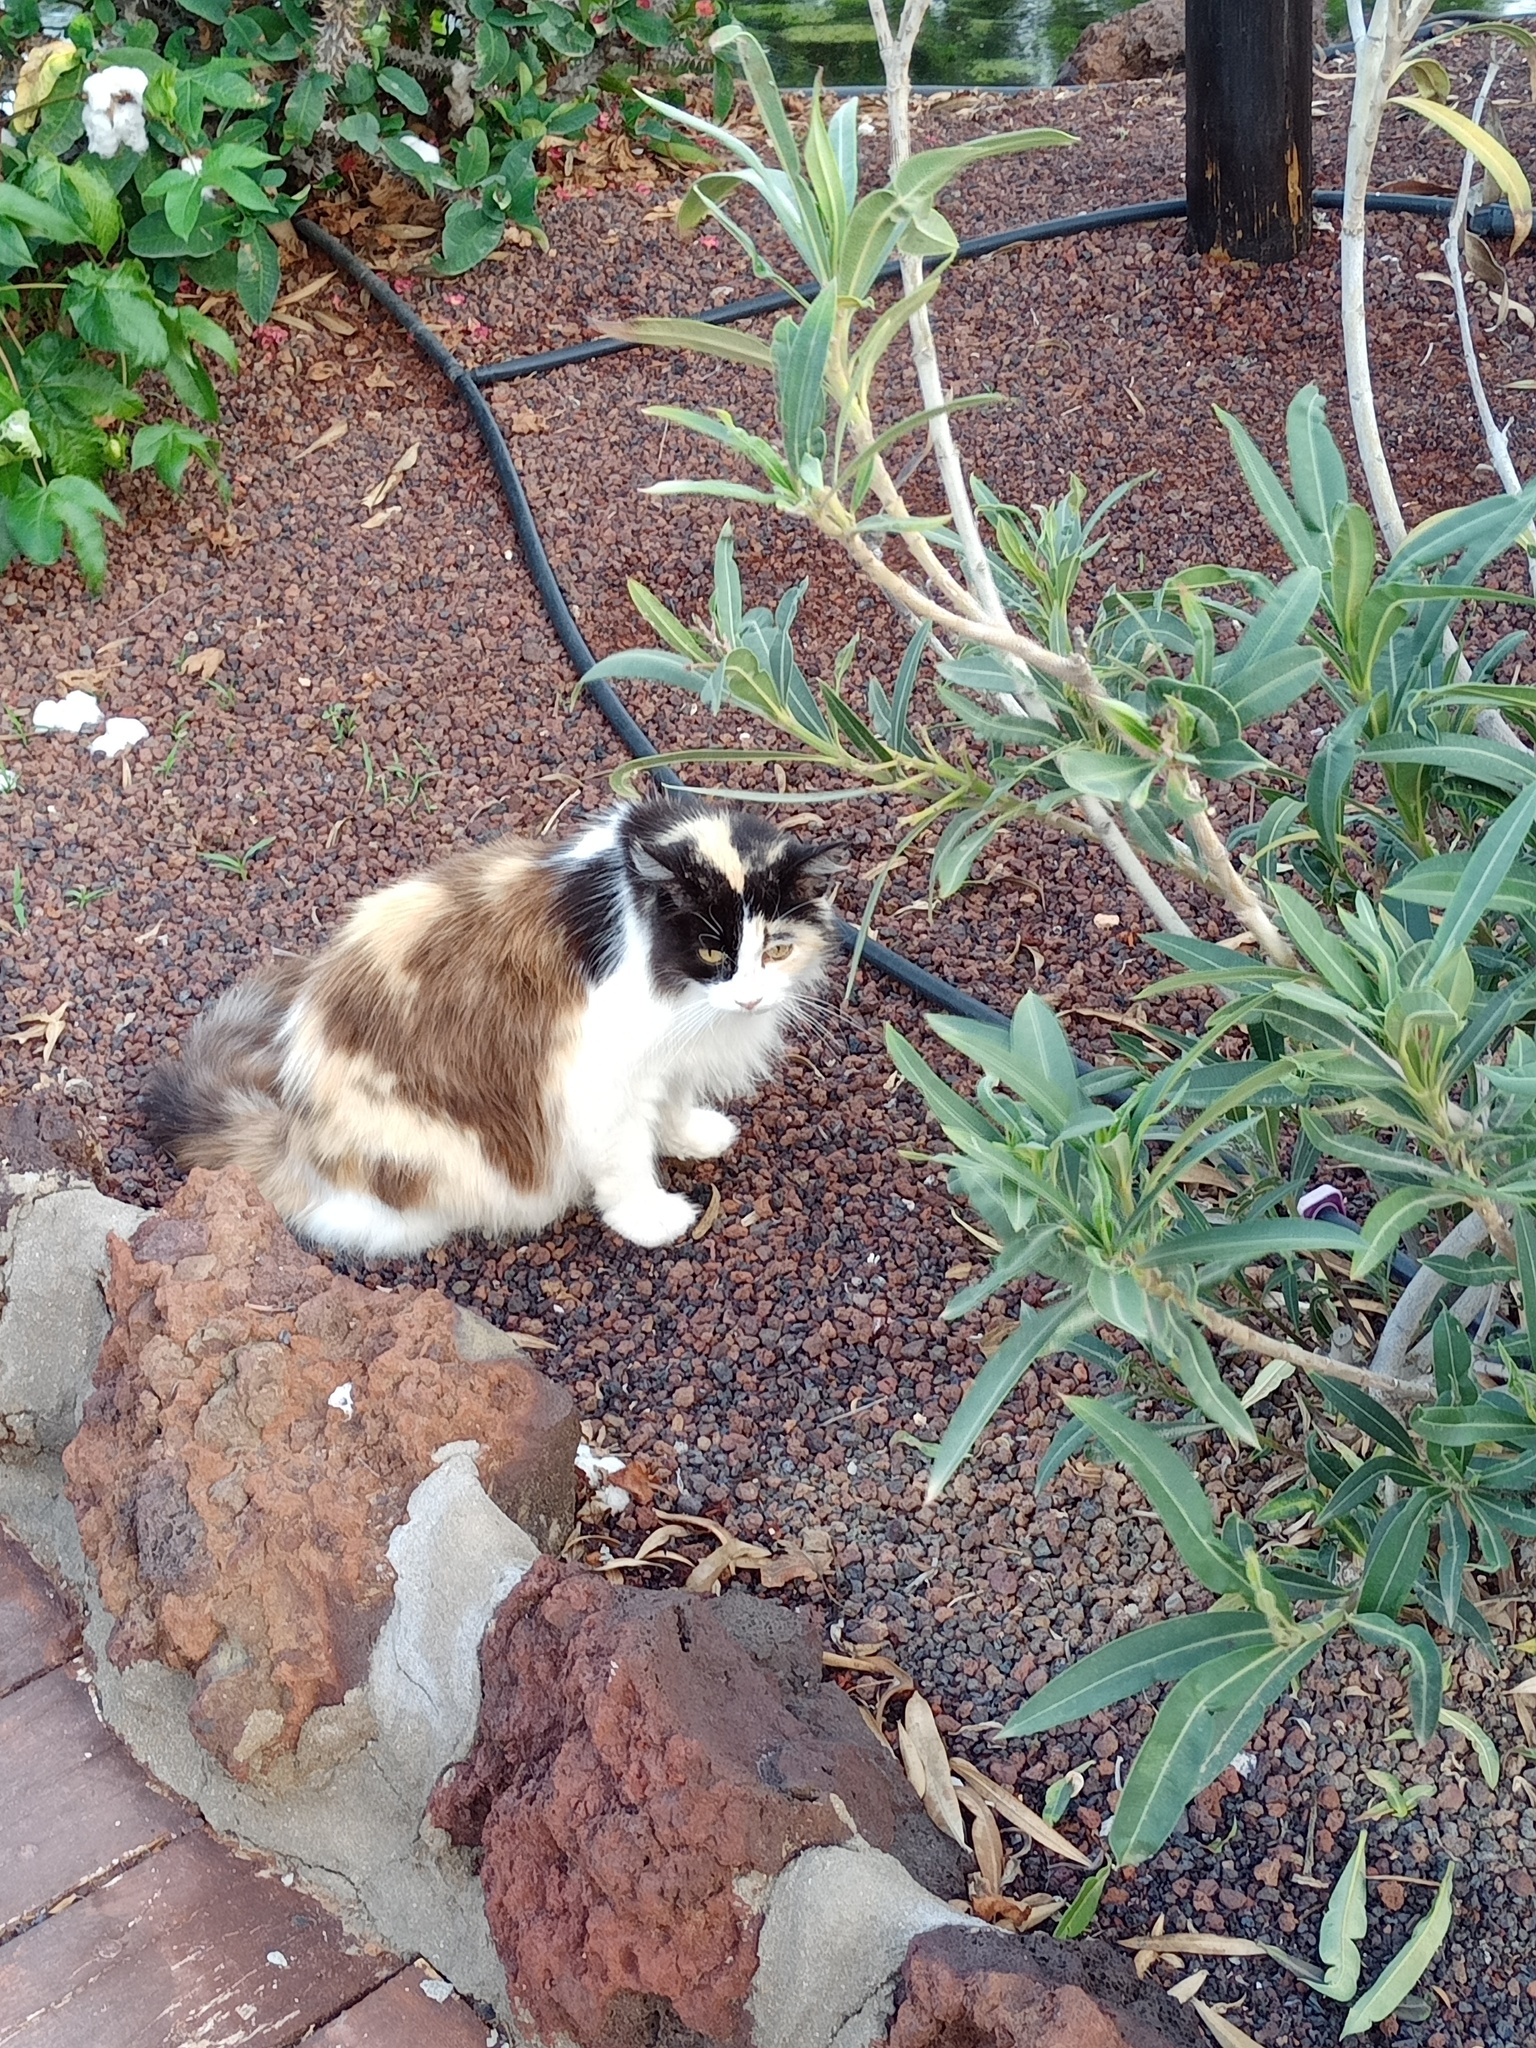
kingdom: Animalia
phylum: Chordata
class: Mammalia
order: Carnivora
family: Felidae
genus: Felis
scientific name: Felis catus
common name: Domestic cat
